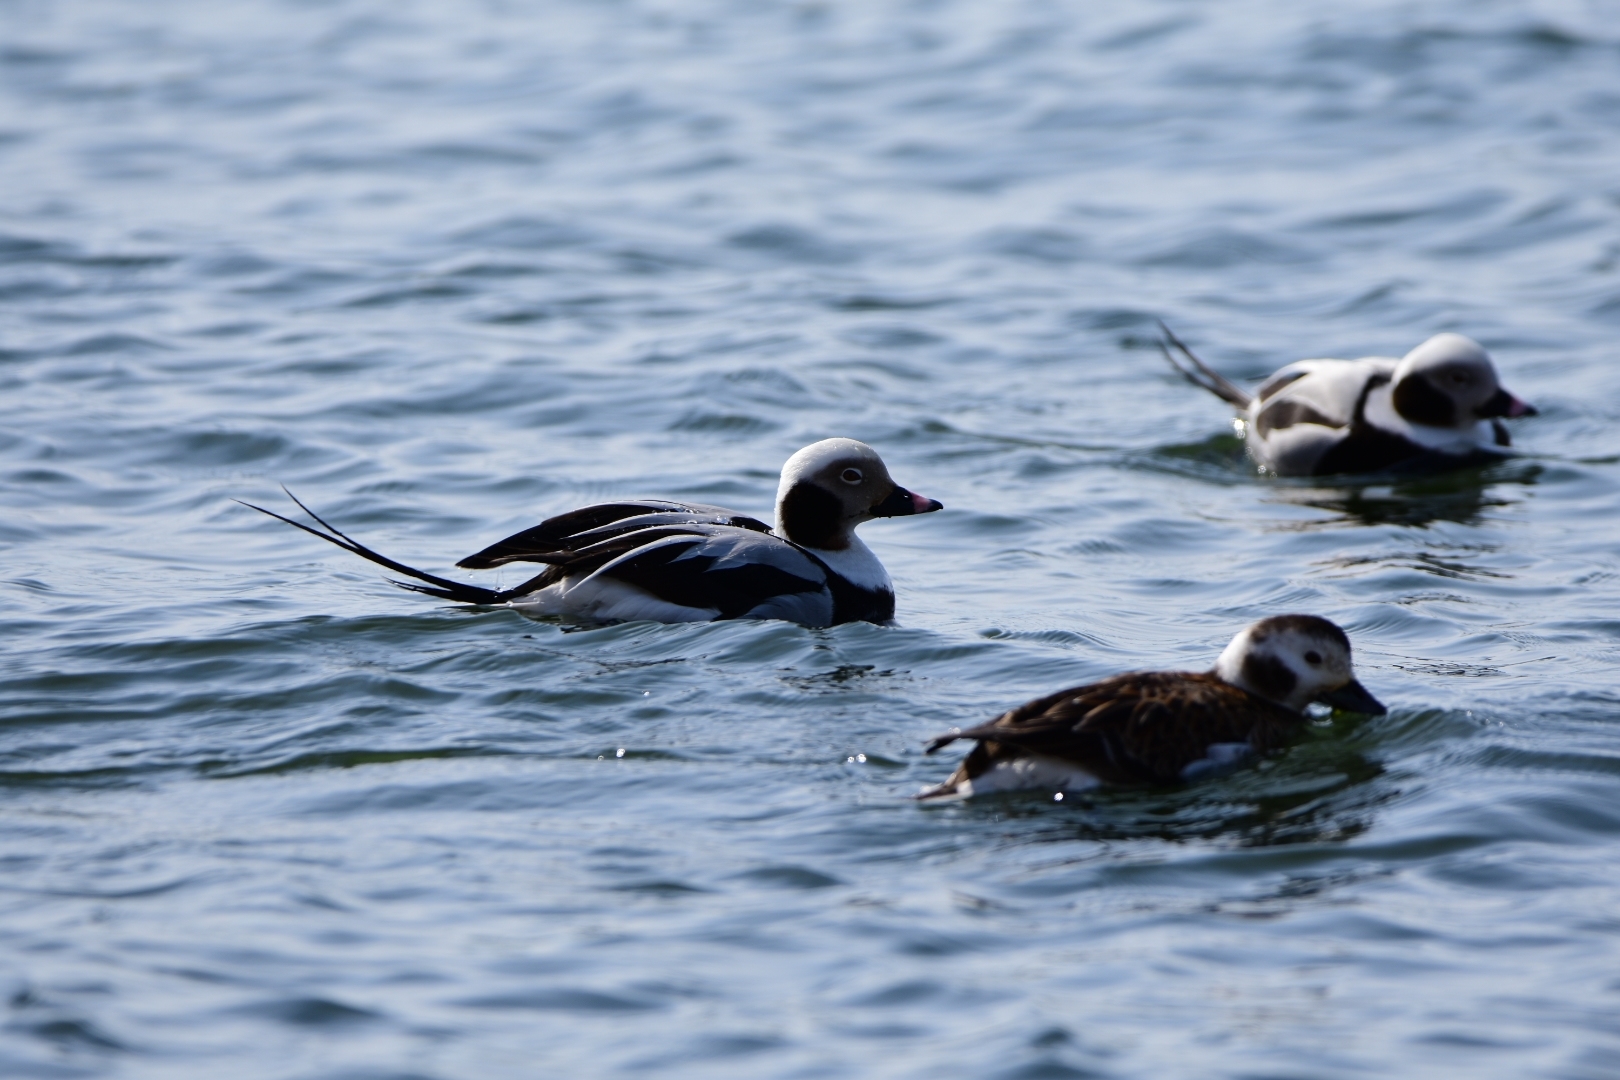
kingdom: Animalia
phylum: Chordata
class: Aves
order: Anseriformes
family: Anatidae
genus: Clangula
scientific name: Clangula hyemalis
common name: Long-tailed duck
